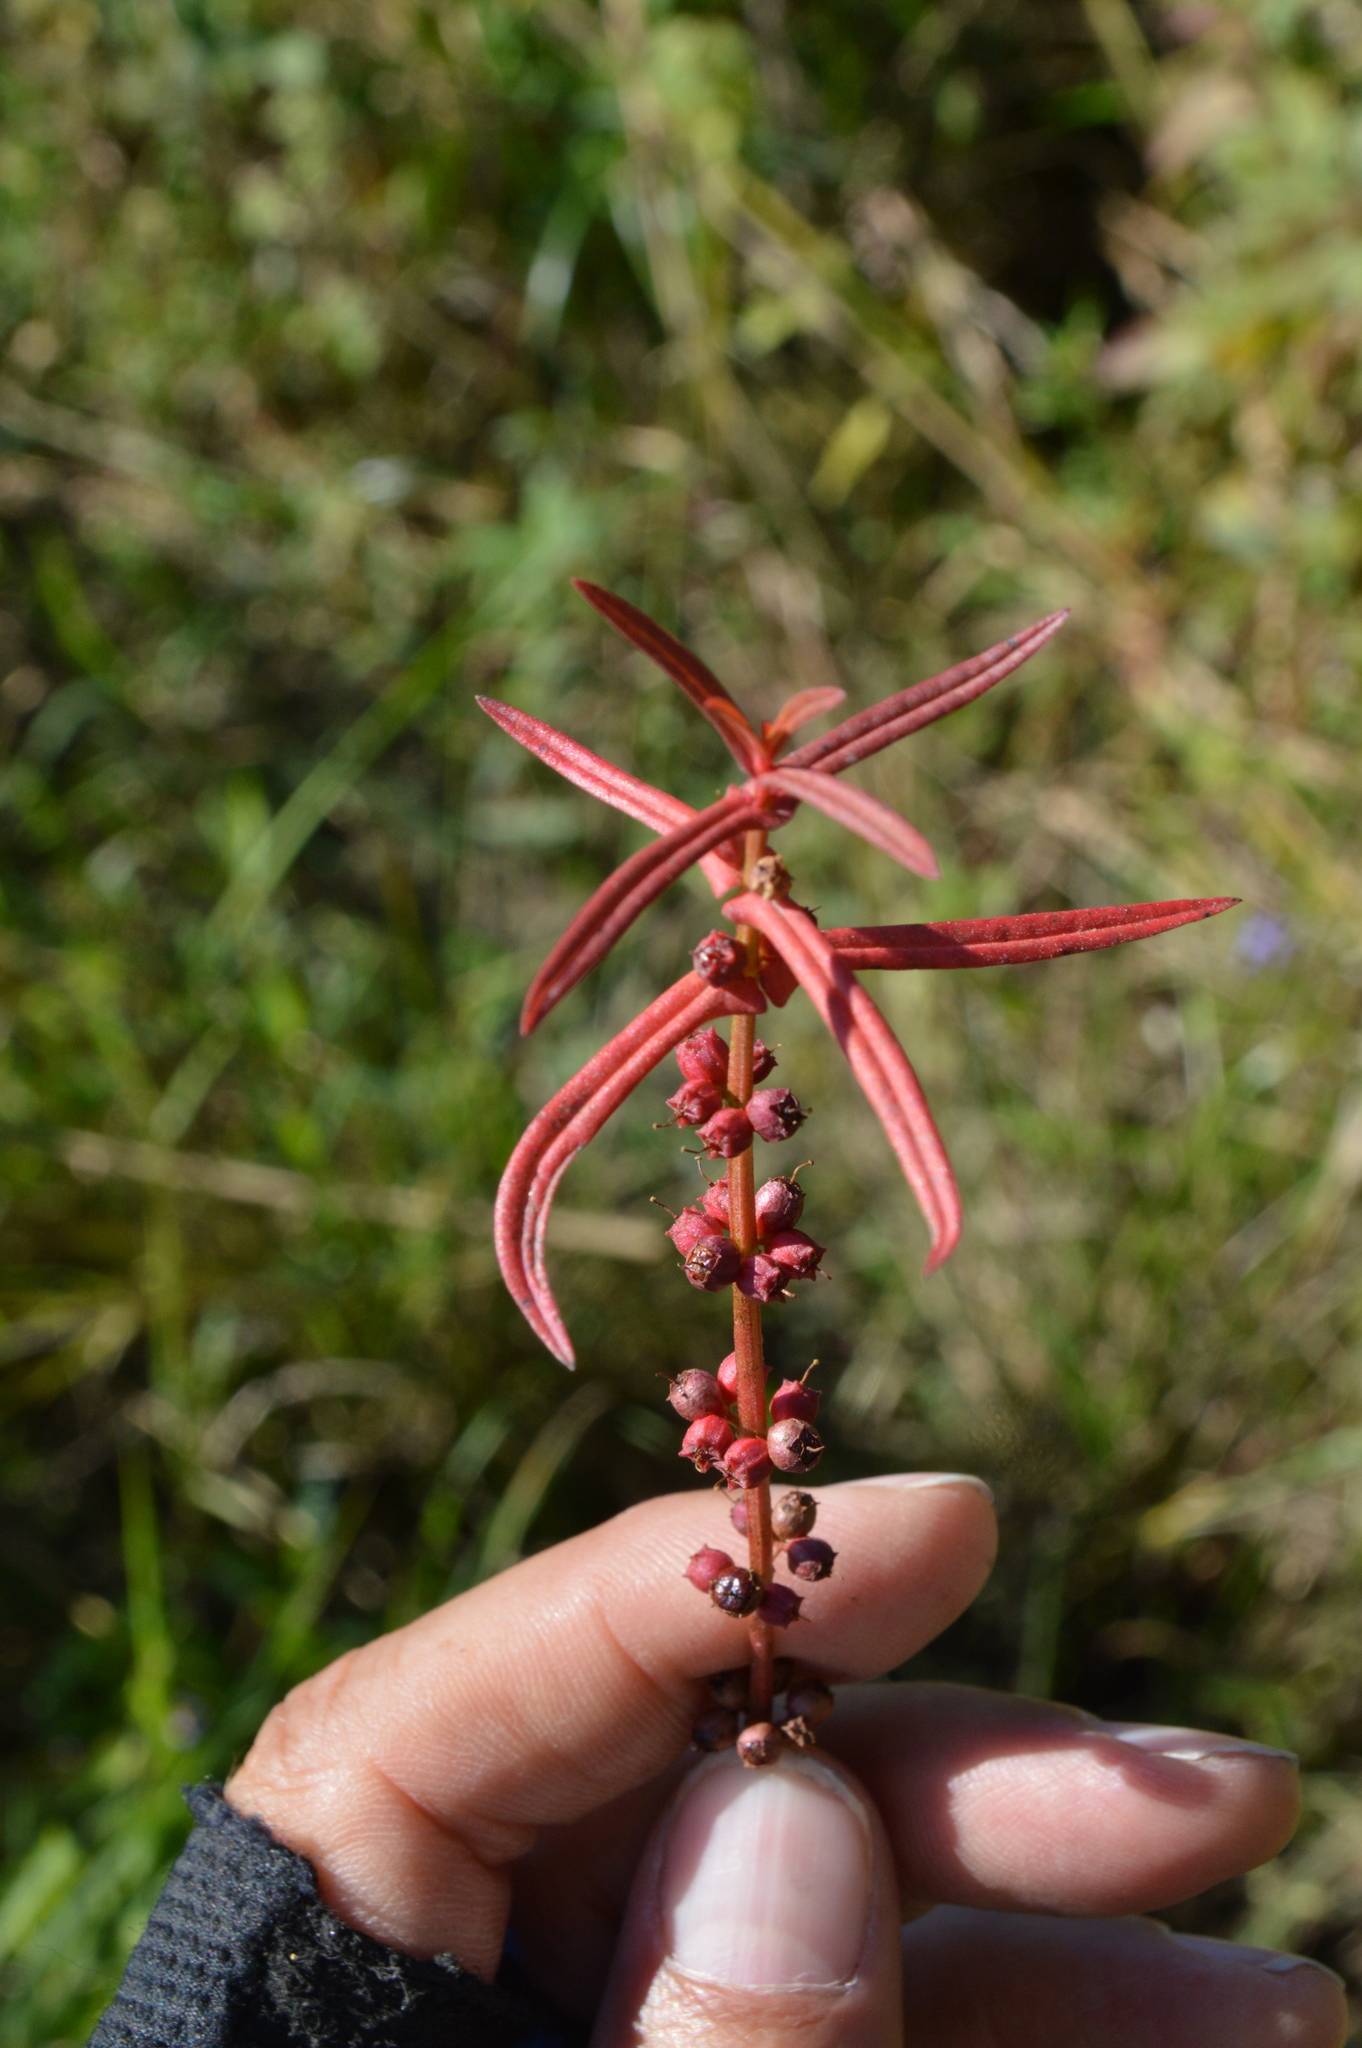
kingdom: Plantae
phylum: Tracheophyta
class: Magnoliopsida
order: Myrtales
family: Lythraceae
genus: Ammannia
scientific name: Ammannia coccinea
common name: Valley redstem
